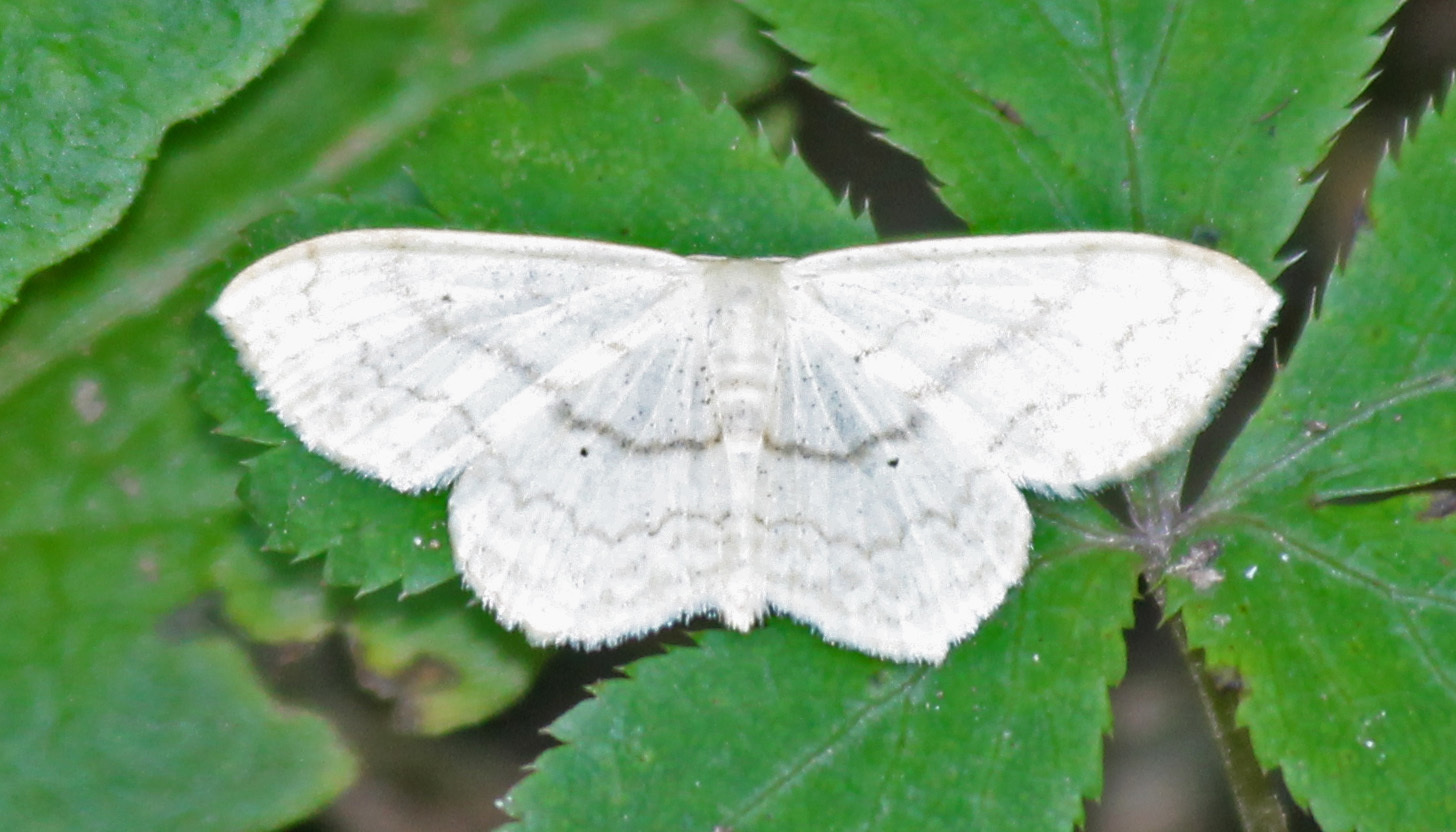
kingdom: Animalia
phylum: Arthropoda
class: Insecta
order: Lepidoptera
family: Geometridae
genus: Scopula
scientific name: Scopula limboundata
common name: Large lace border
